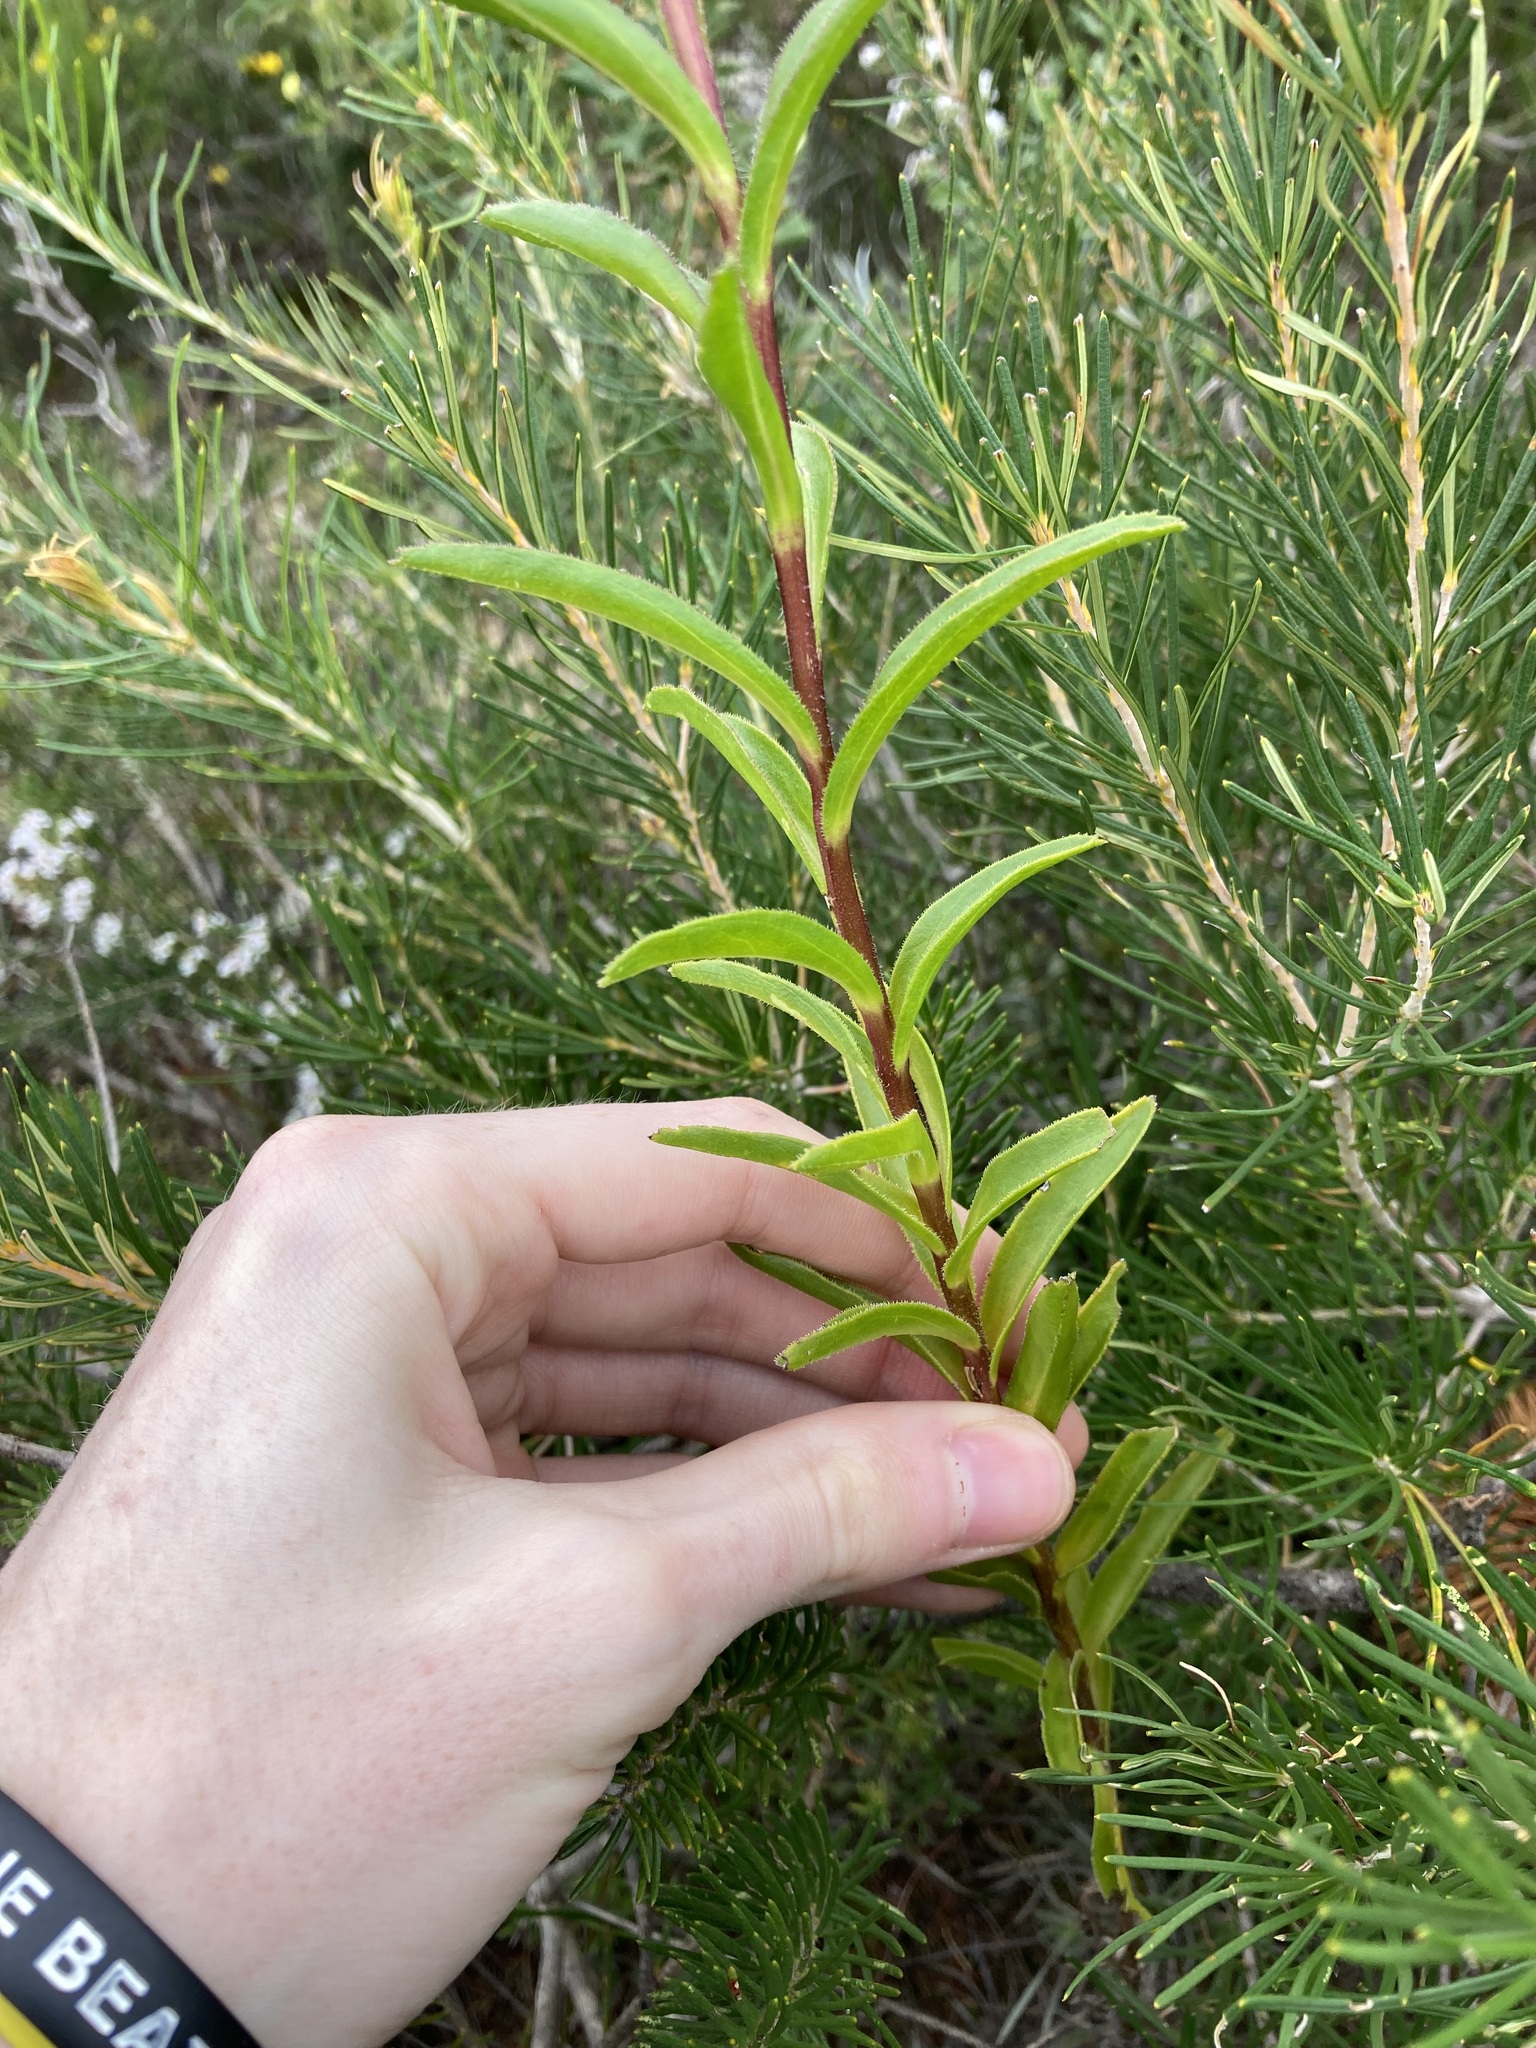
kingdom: Plantae
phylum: Tracheophyta
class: Magnoliopsida
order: Asterales
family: Asteraceae
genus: Muellerolaria
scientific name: Muellerolaria rudis
